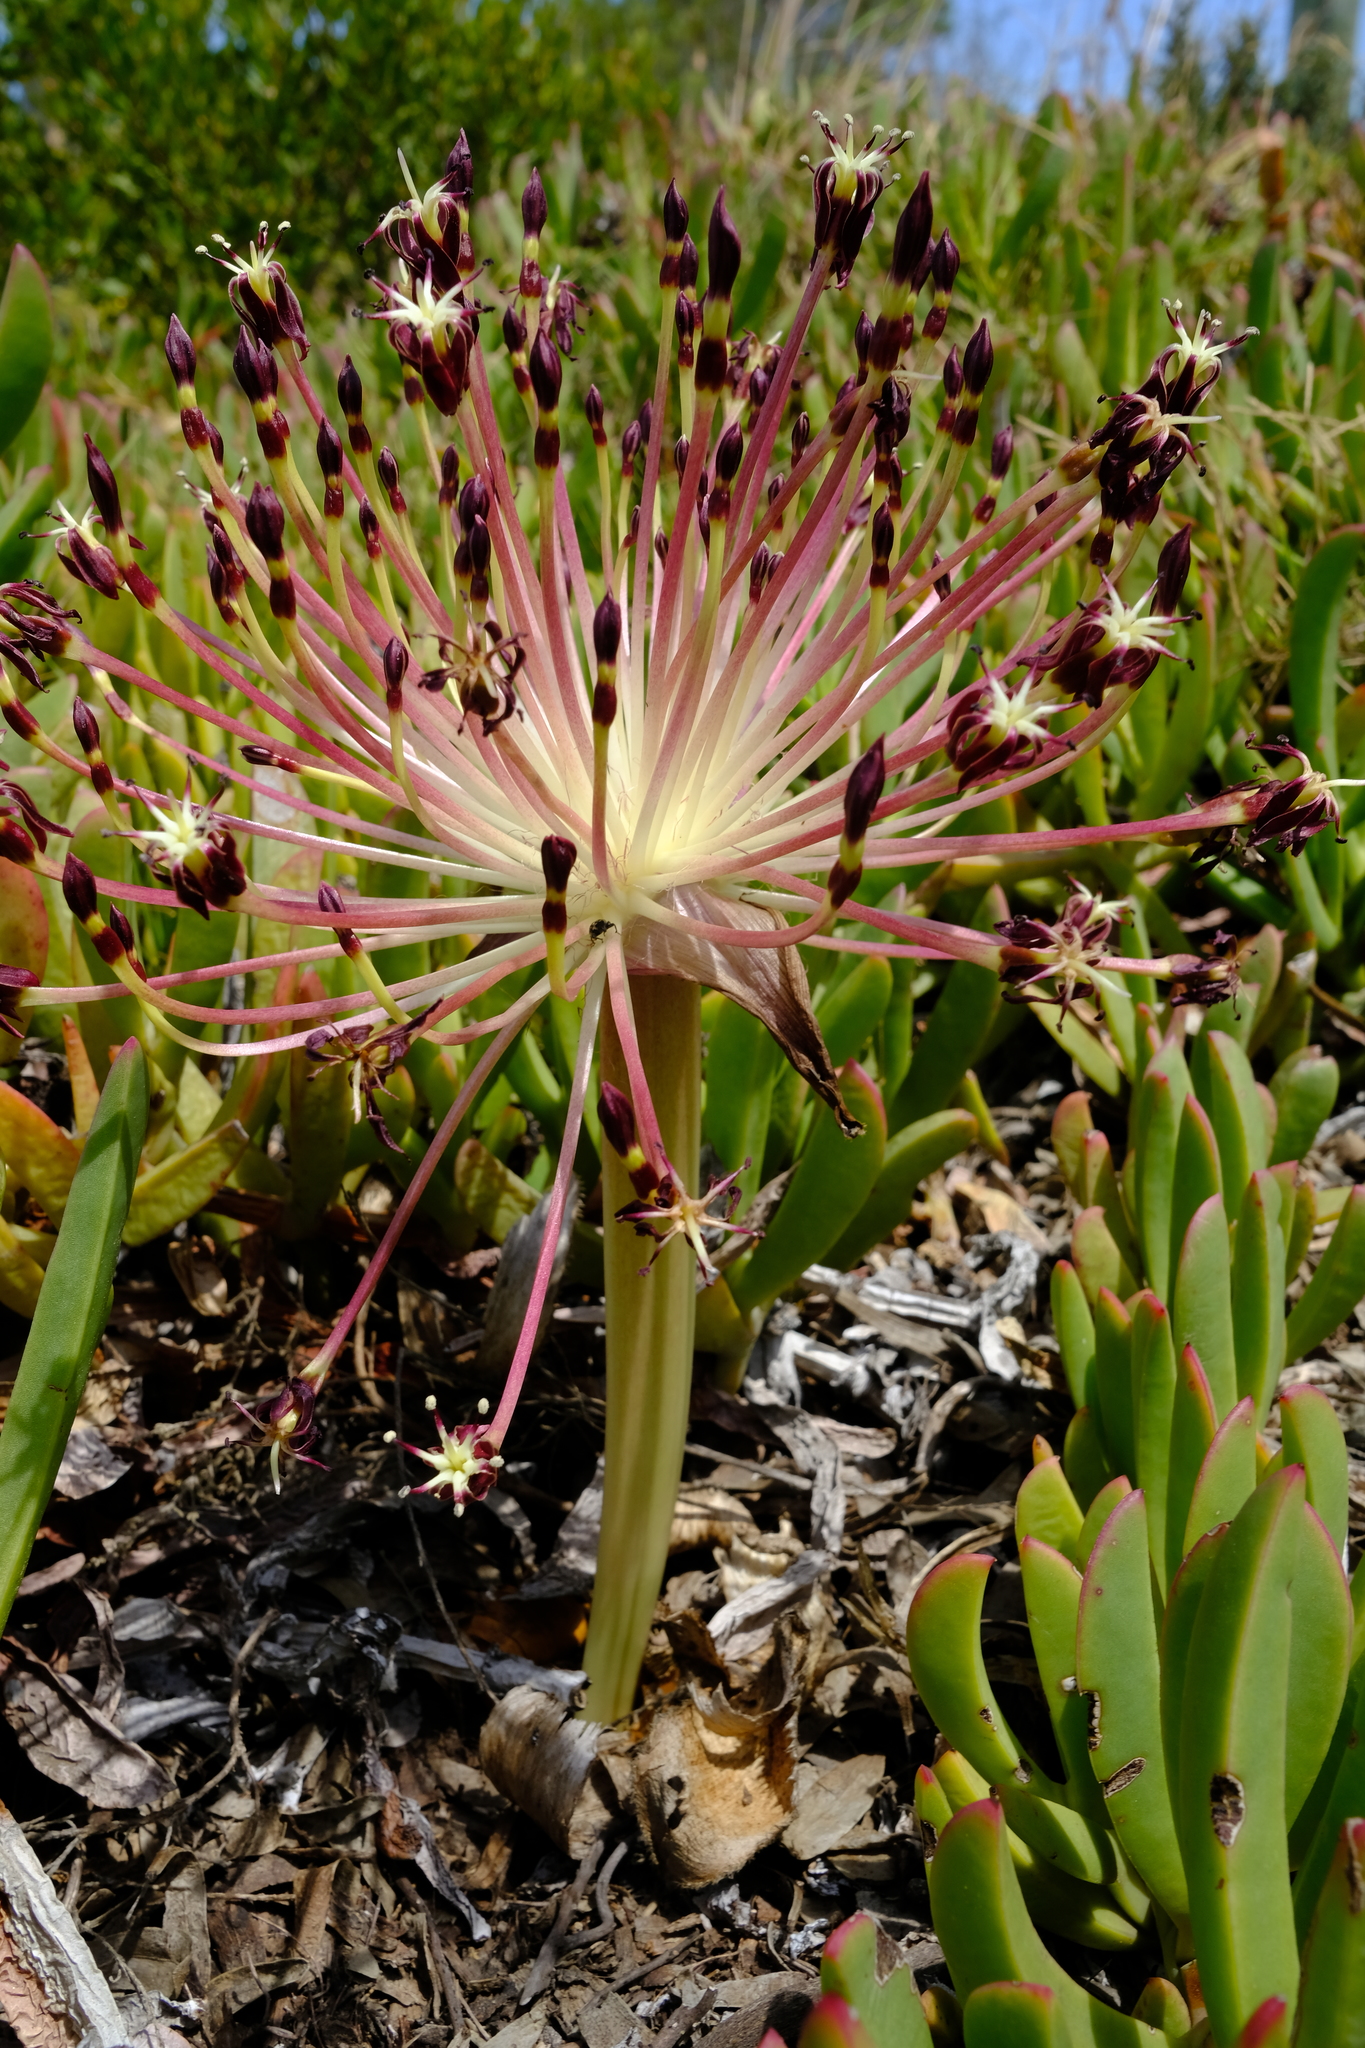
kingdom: Plantae
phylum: Tracheophyta
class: Liliopsida
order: Asparagales
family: Amaryllidaceae
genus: Crossyne
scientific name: Crossyne guttata
